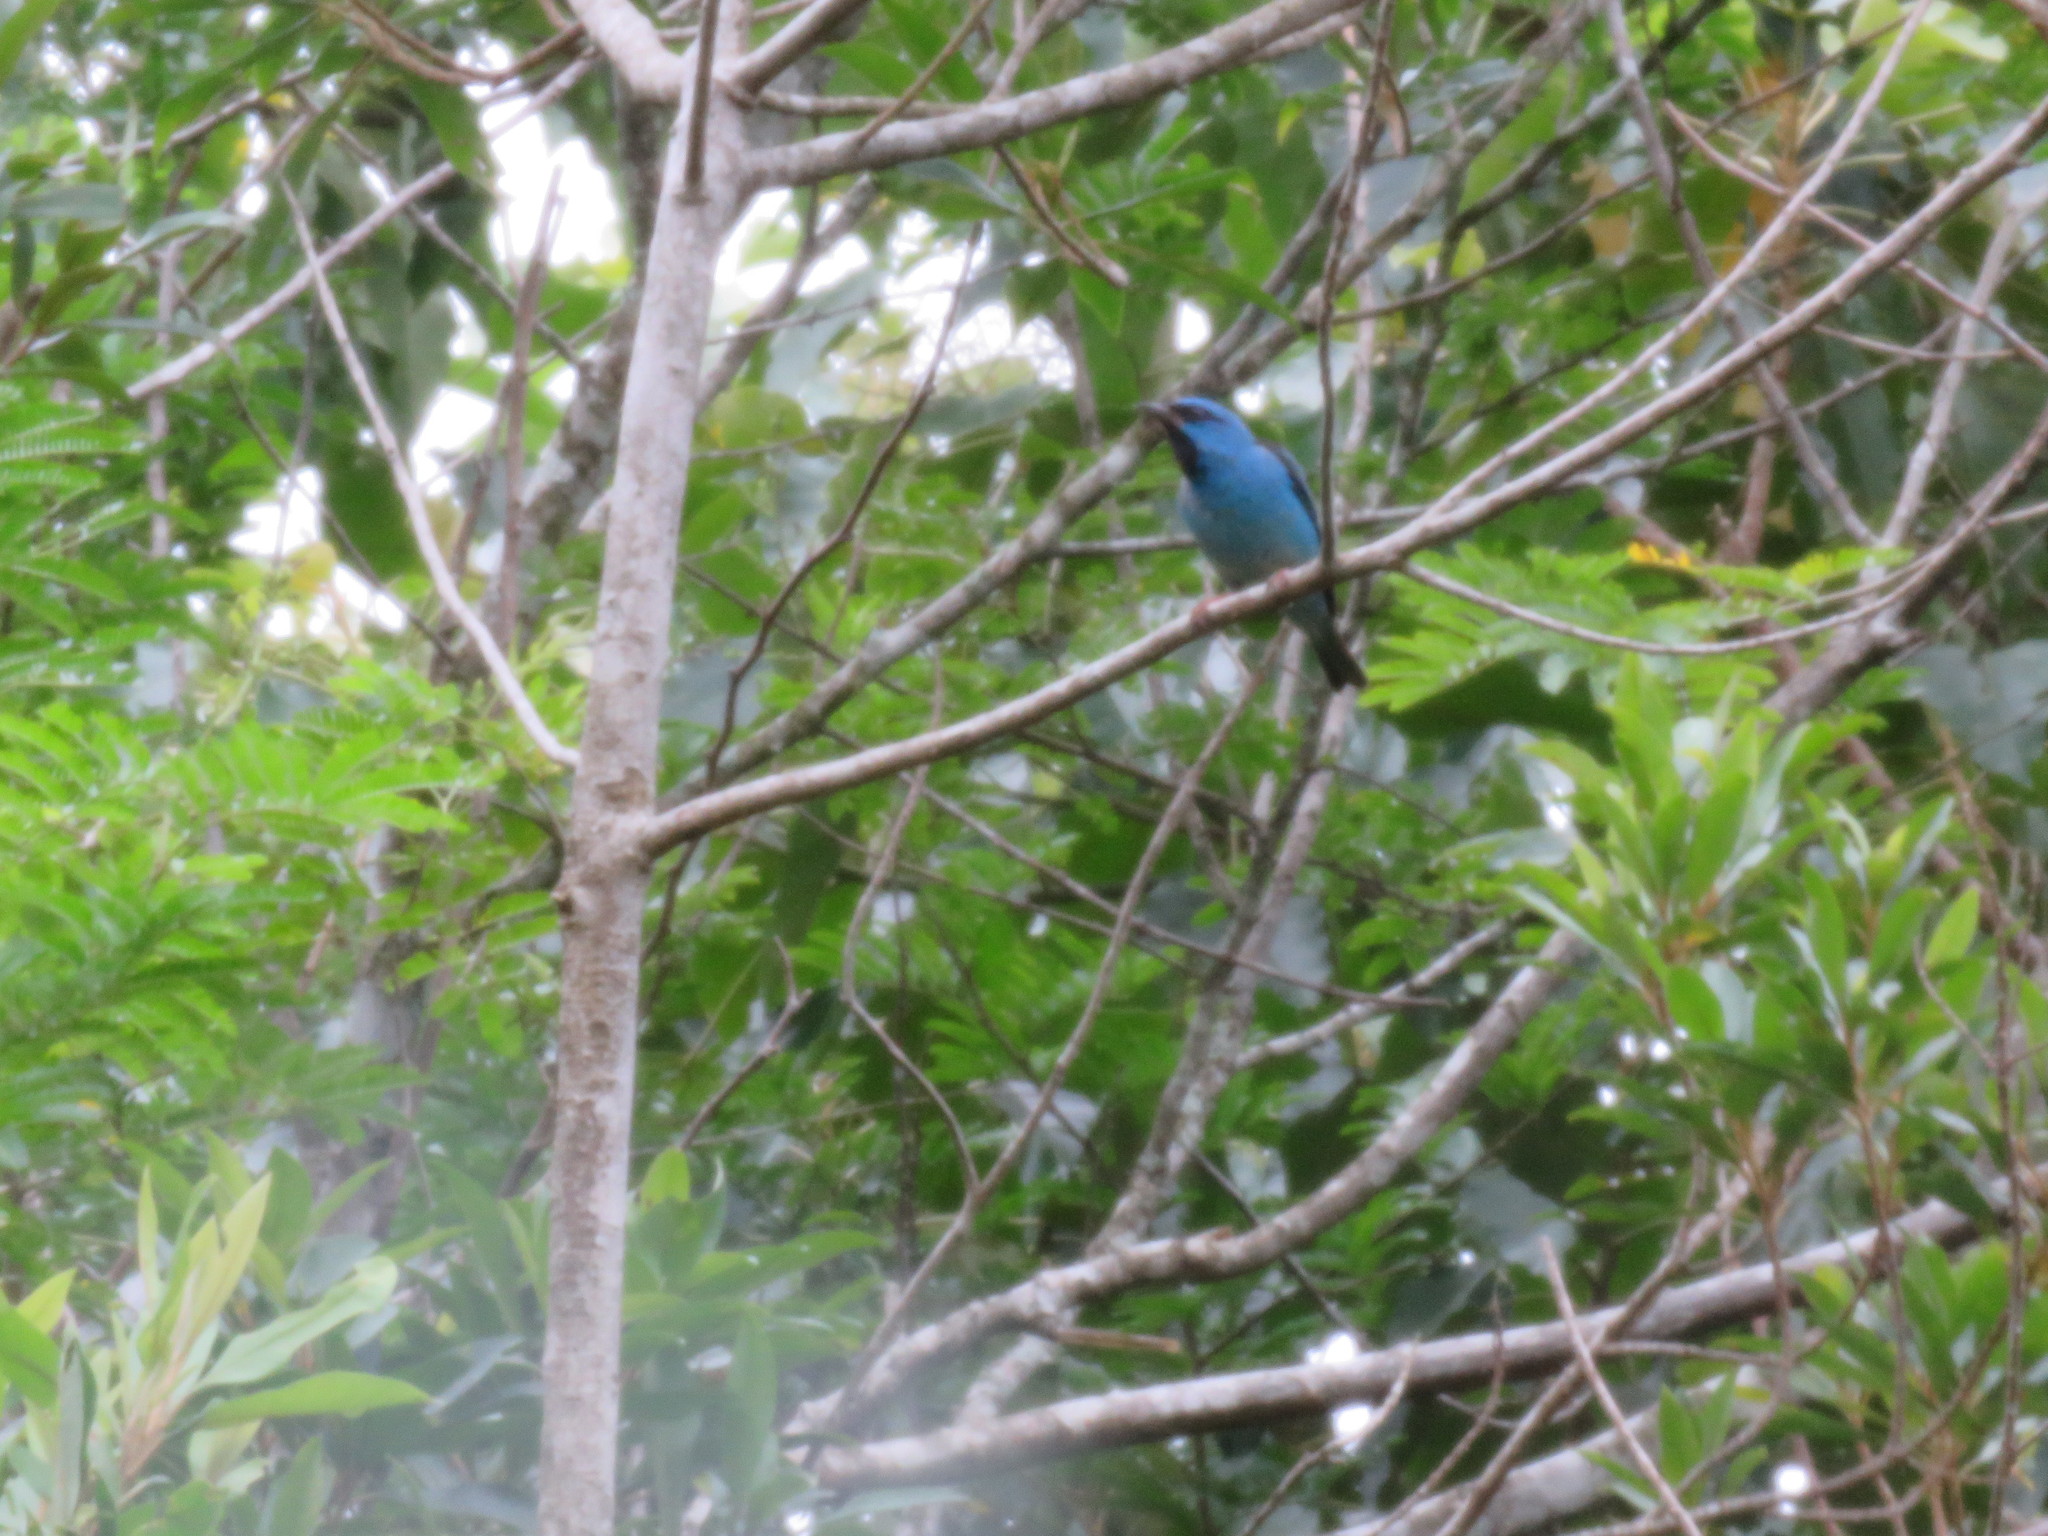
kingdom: Animalia
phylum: Chordata
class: Aves
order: Passeriformes
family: Thraupidae
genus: Dacnis
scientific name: Dacnis cayana
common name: Blue dacnis
